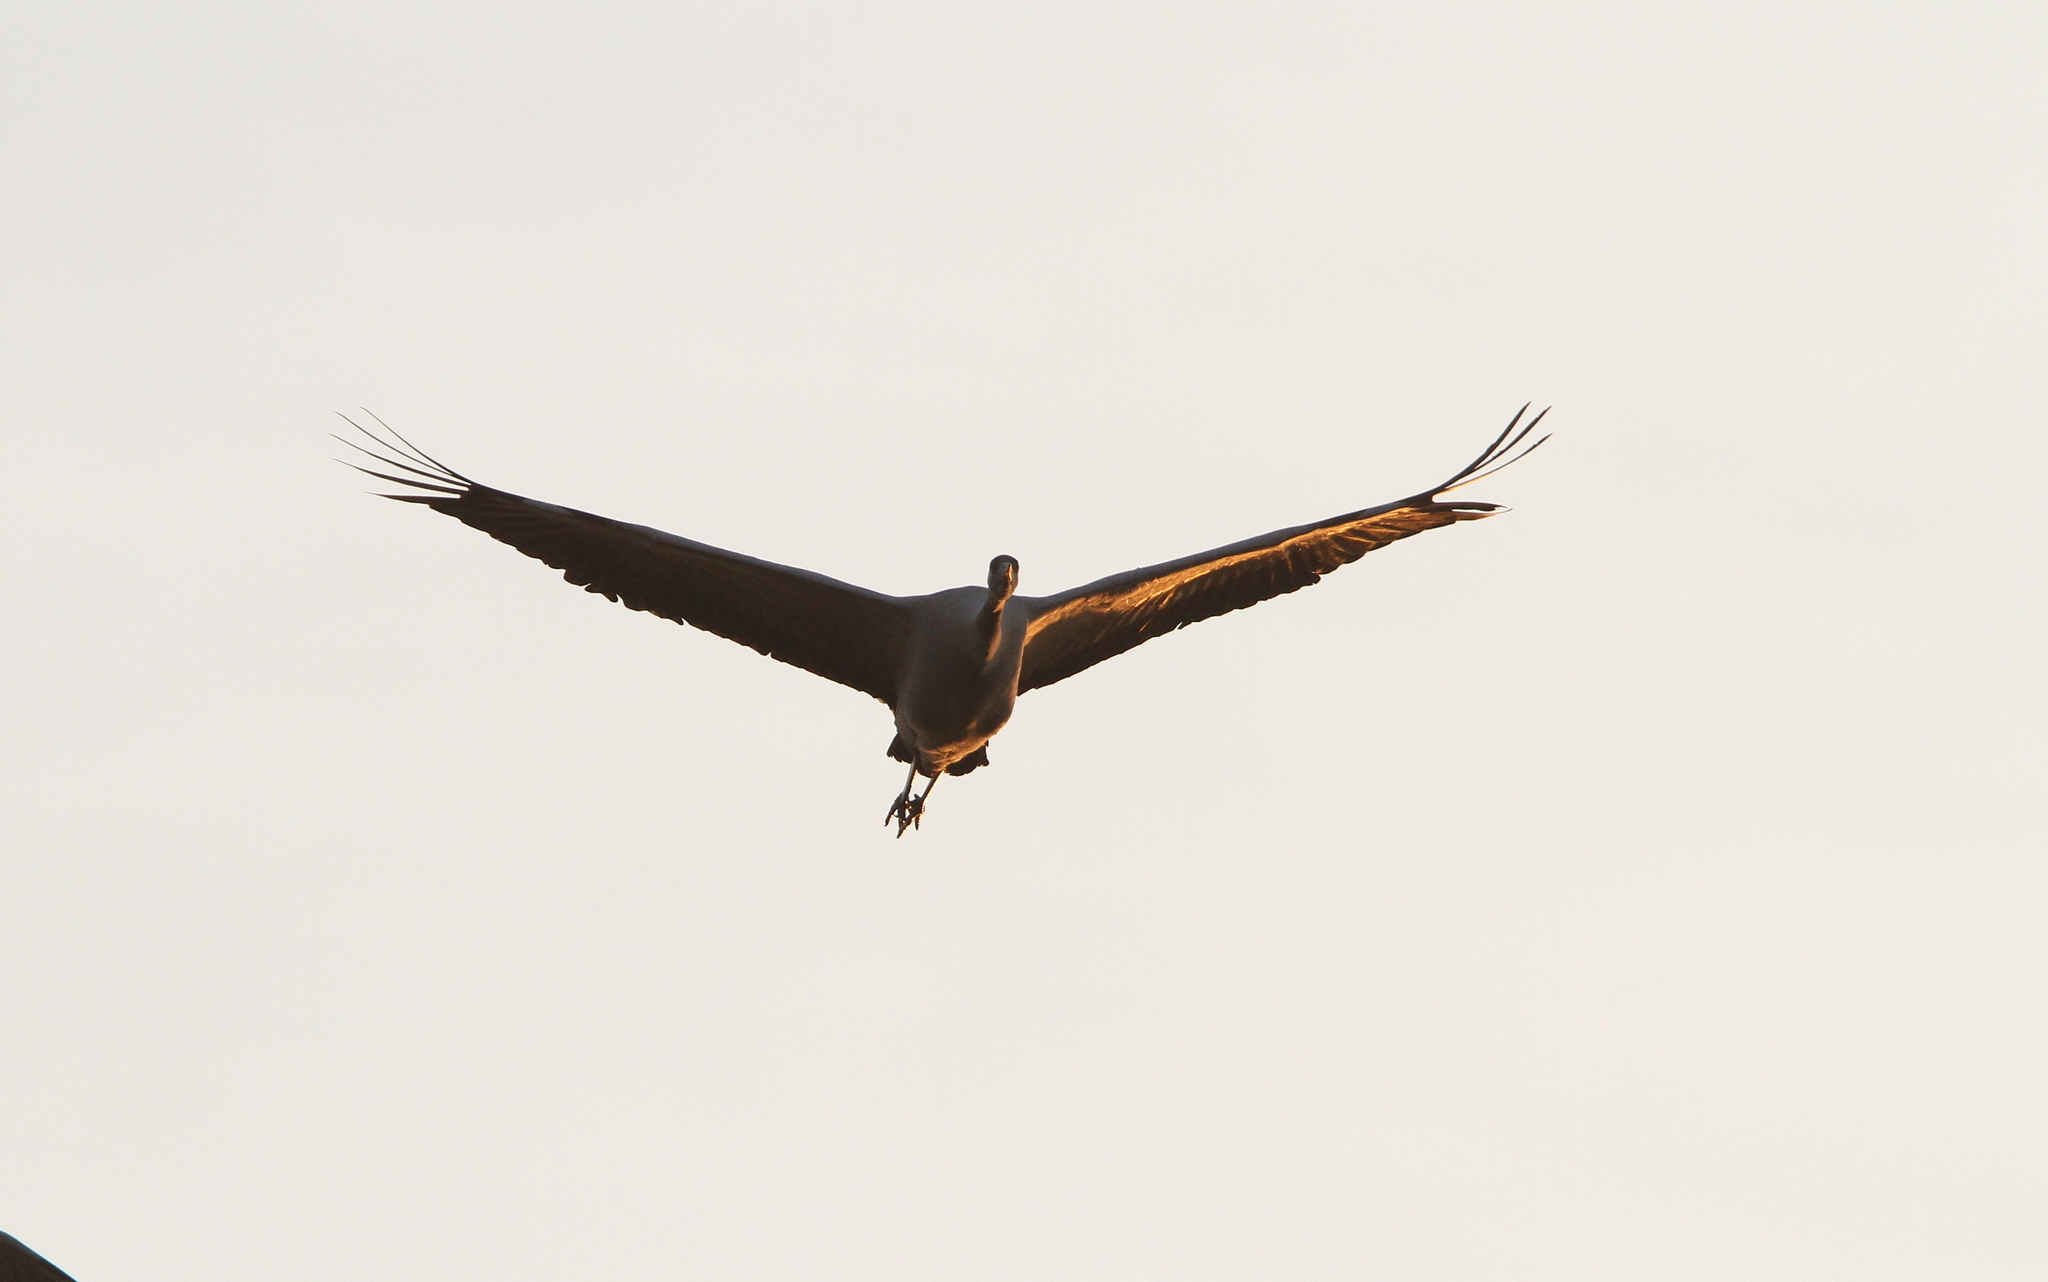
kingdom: Animalia
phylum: Chordata
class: Aves
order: Gruiformes
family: Gruidae
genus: Grus
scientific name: Grus grus
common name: Common crane
